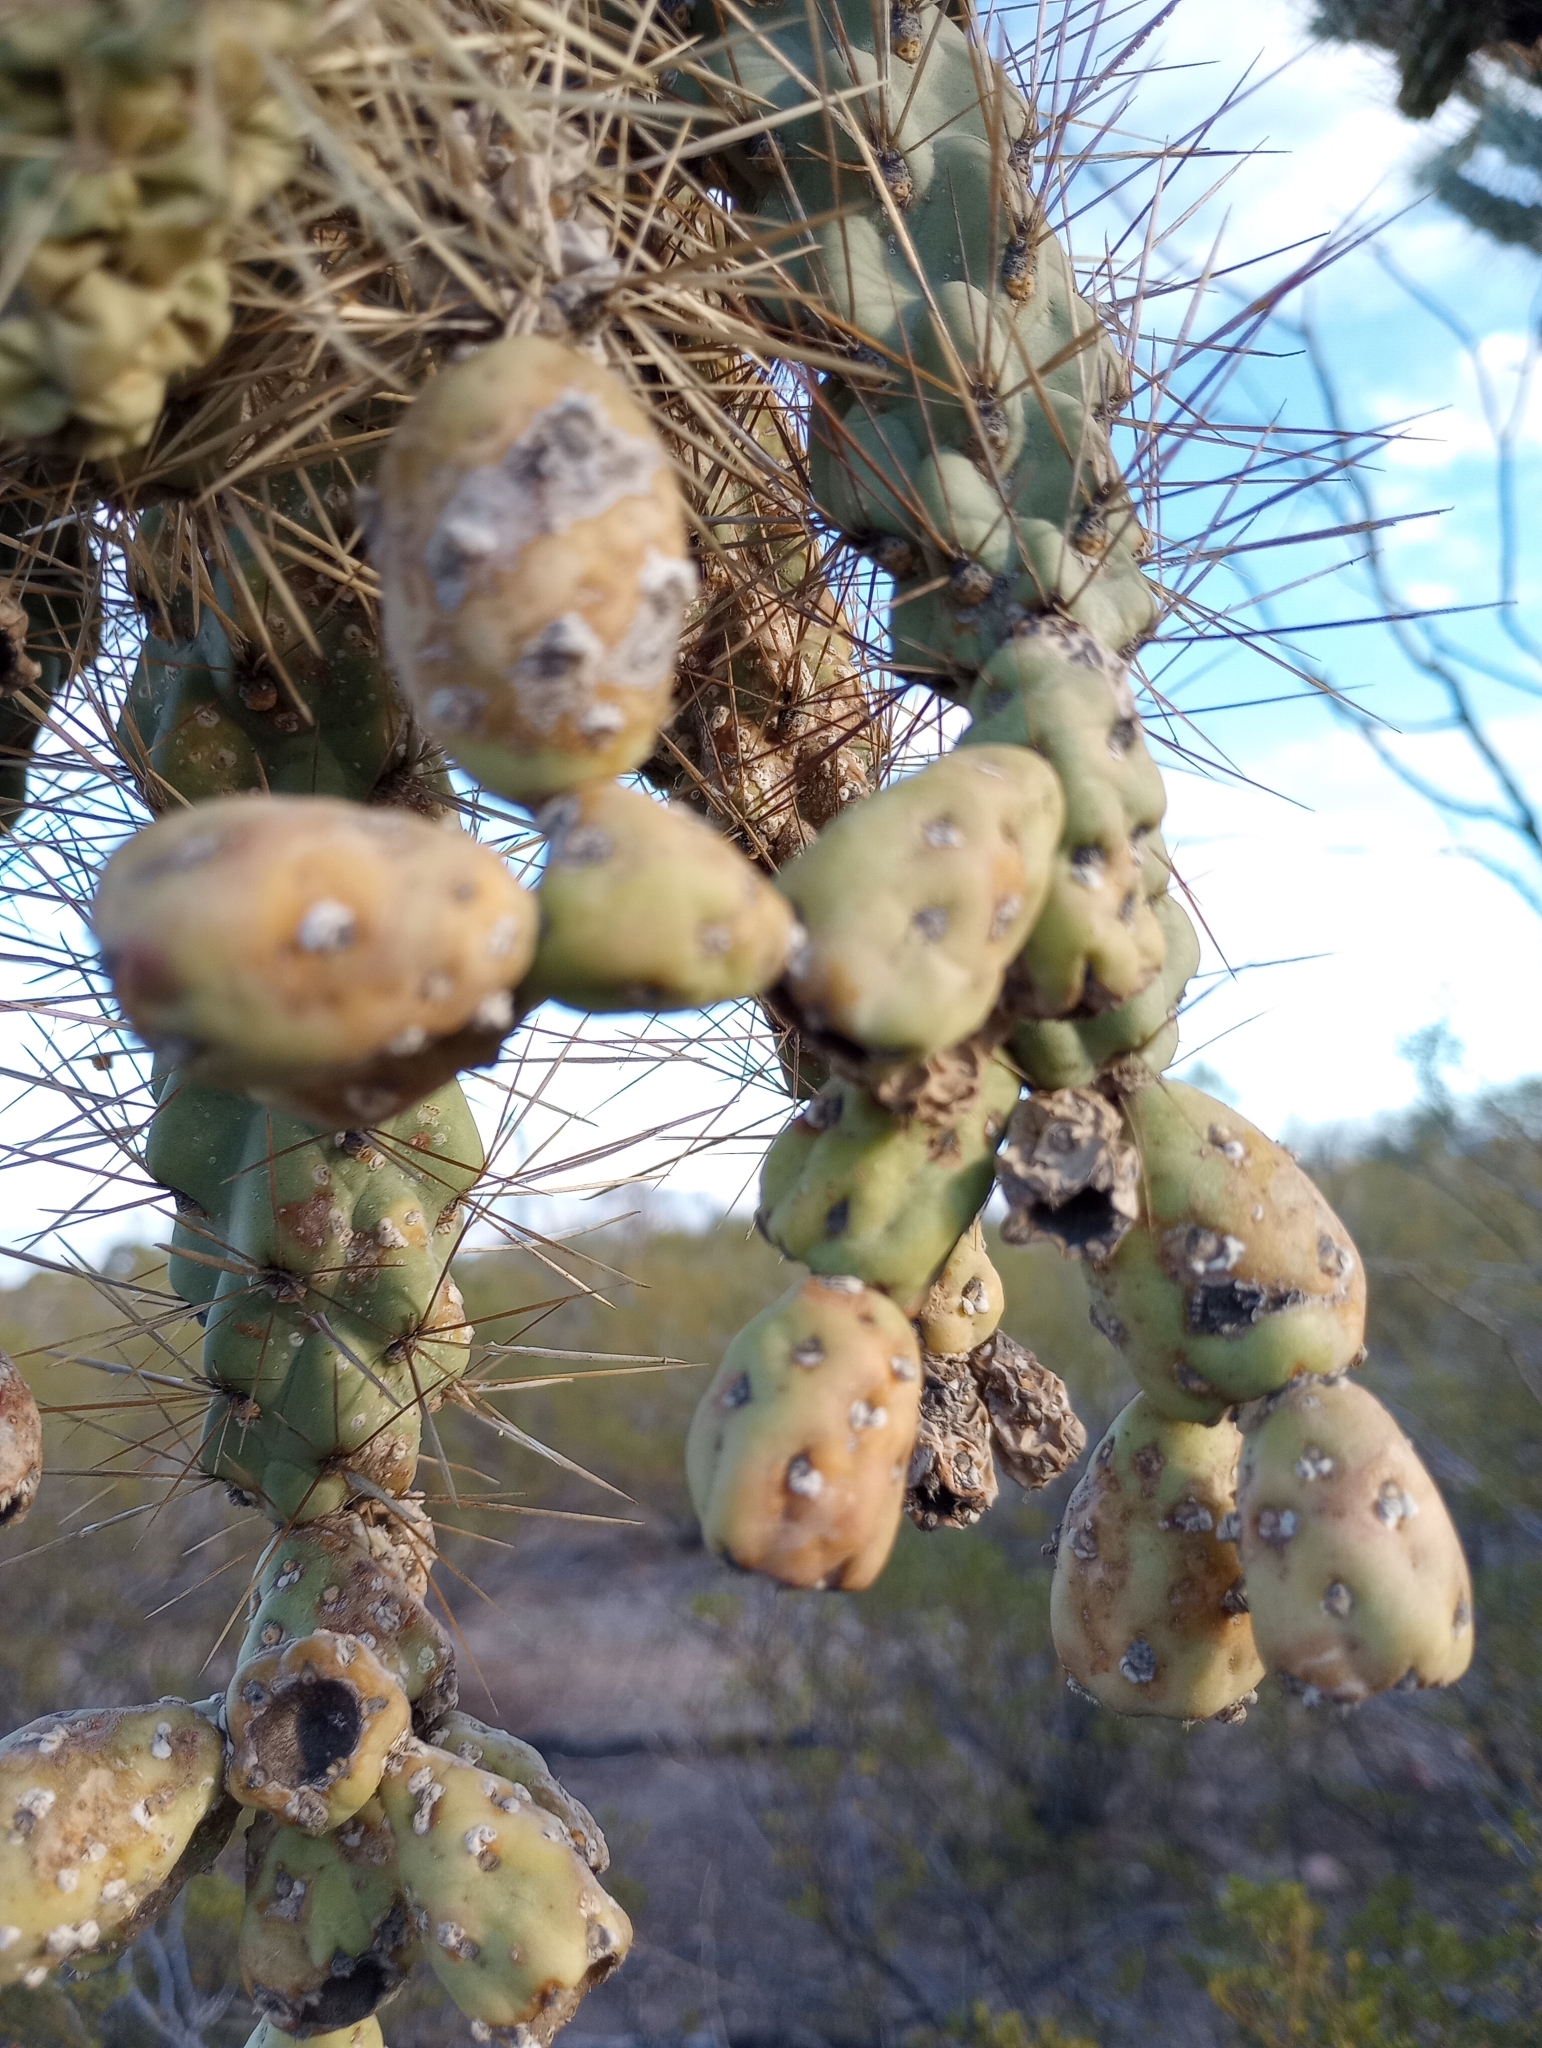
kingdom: Plantae
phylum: Tracheophyta
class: Magnoliopsida
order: Caryophyllales
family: Cactaceae
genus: Cylindropuntia
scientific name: Cylindropuntia fulgida
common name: Jumping cholla
